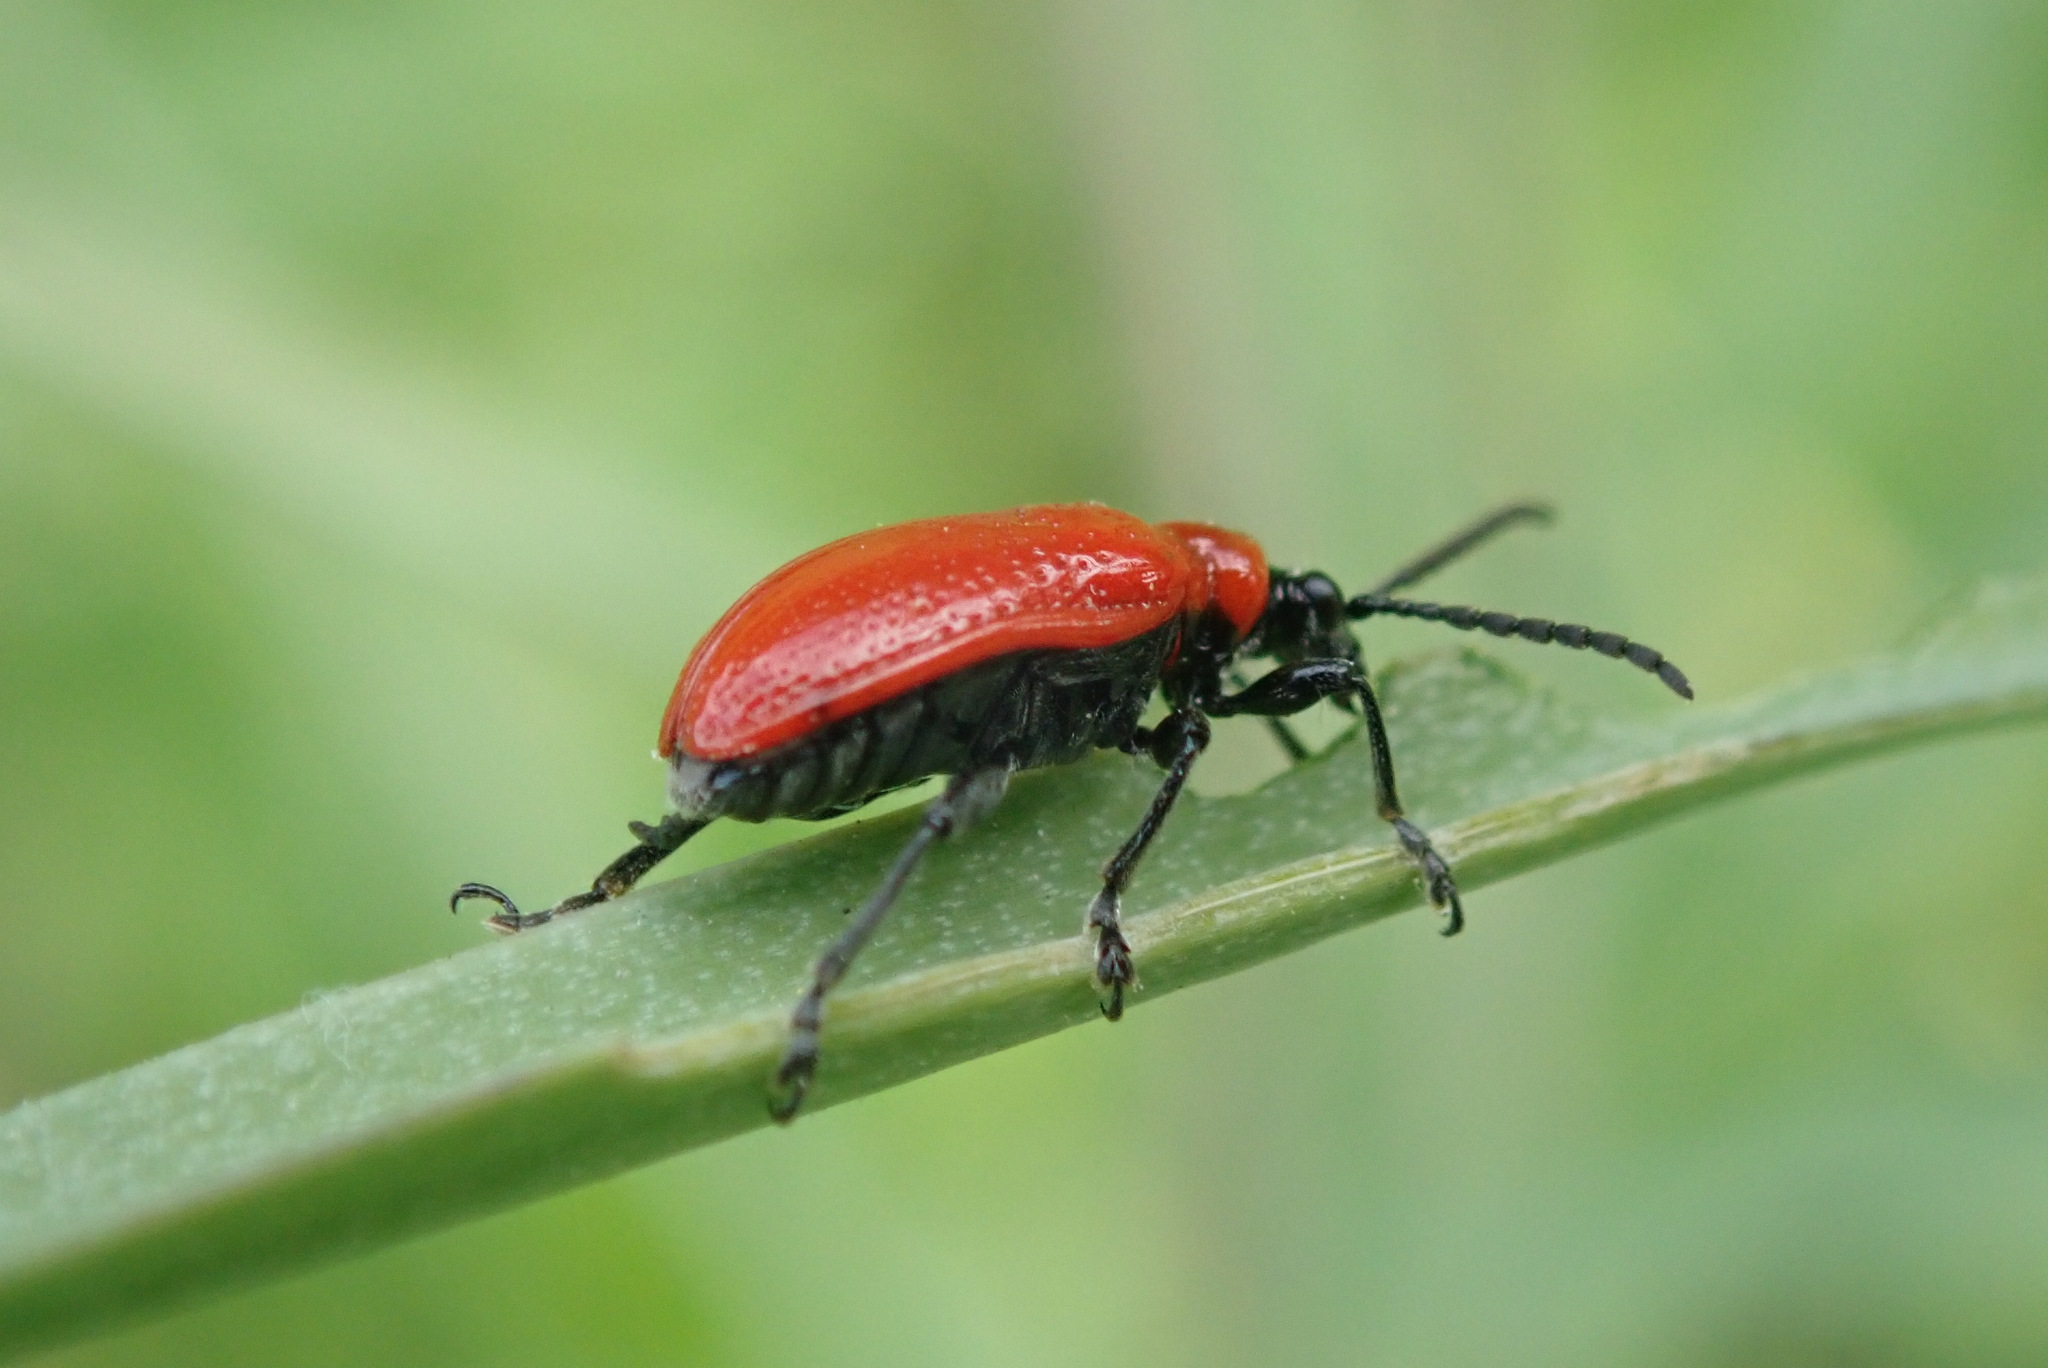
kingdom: Animalia
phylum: Arthropoda
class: Insecta
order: Coleoptera
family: Chrysomelidae
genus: Lilioceris
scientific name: Lilioceris lilii
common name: Lily beetle
